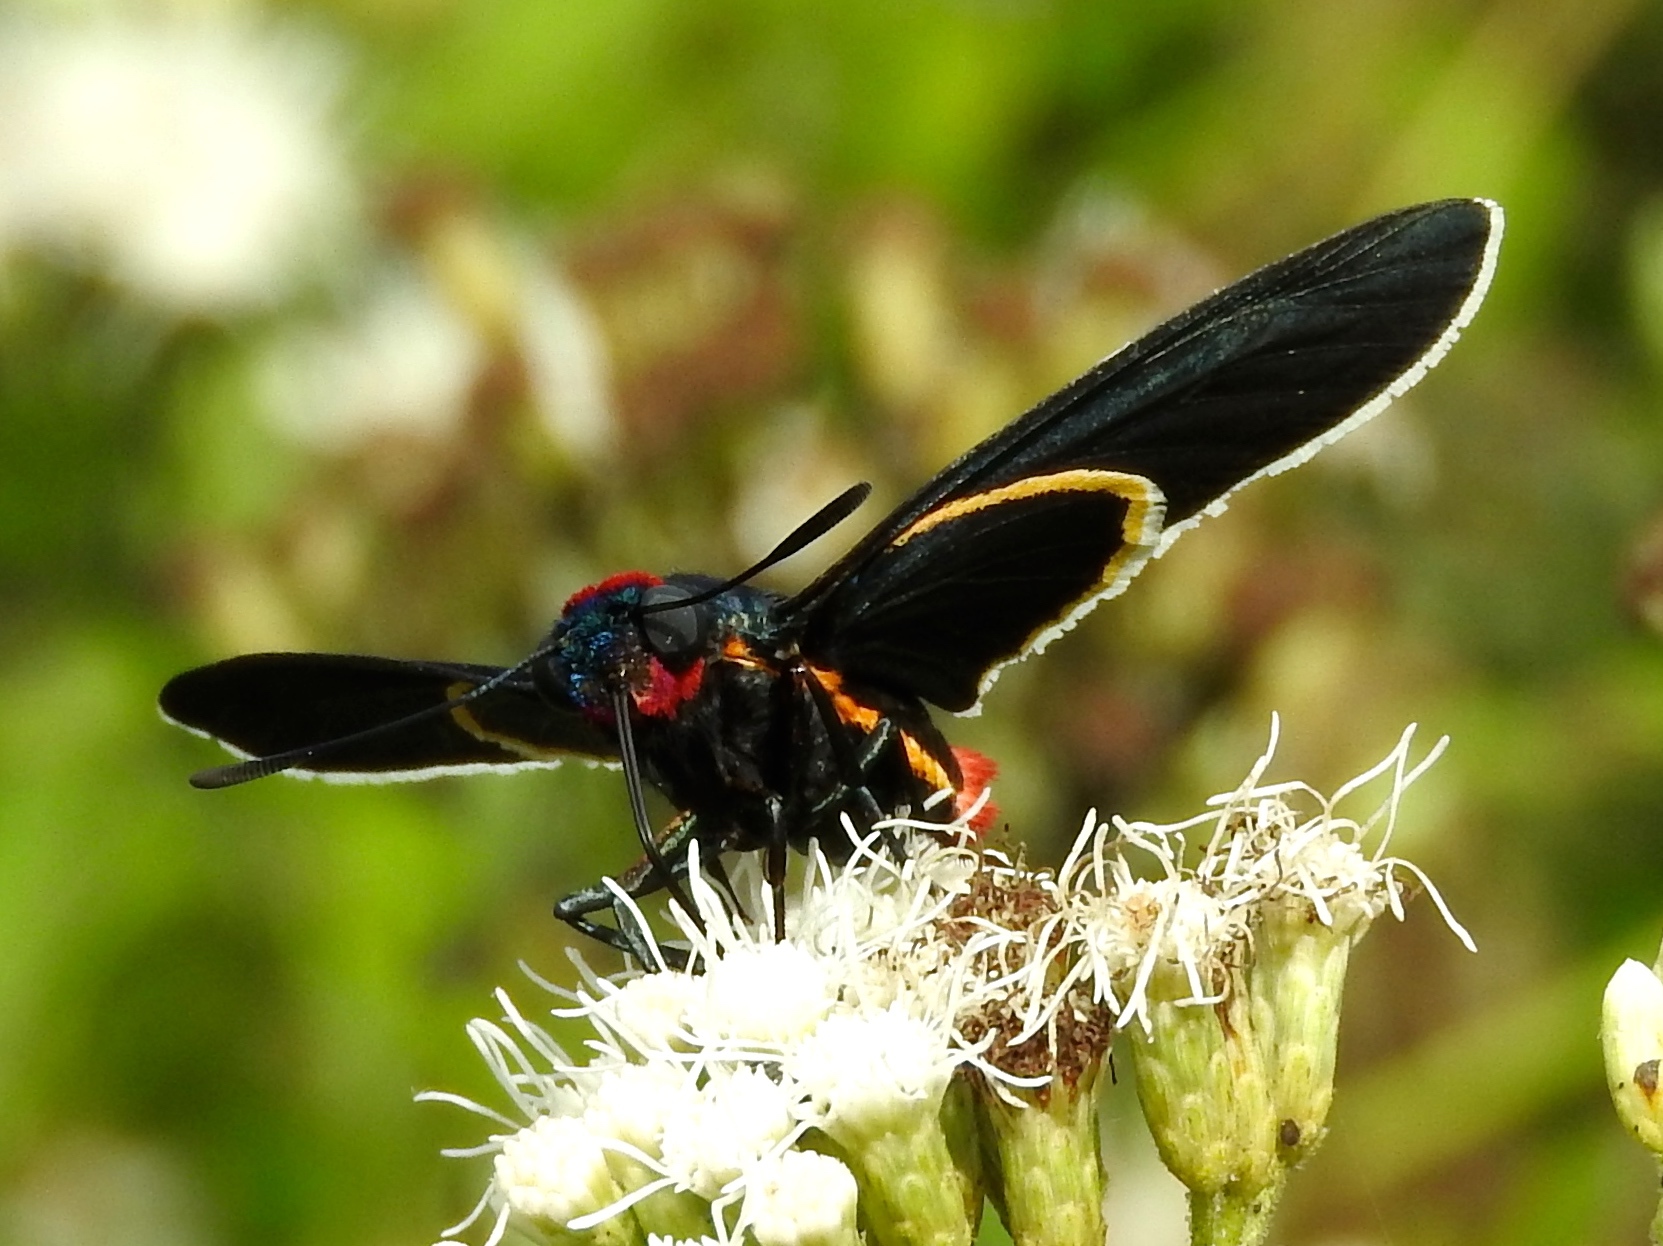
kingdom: Animalia
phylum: Arthropoda
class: Insecta
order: Lepidoptera
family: Hesperiidae
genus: Mysoria
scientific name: Mysoria affinis
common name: Red-collared firetip
